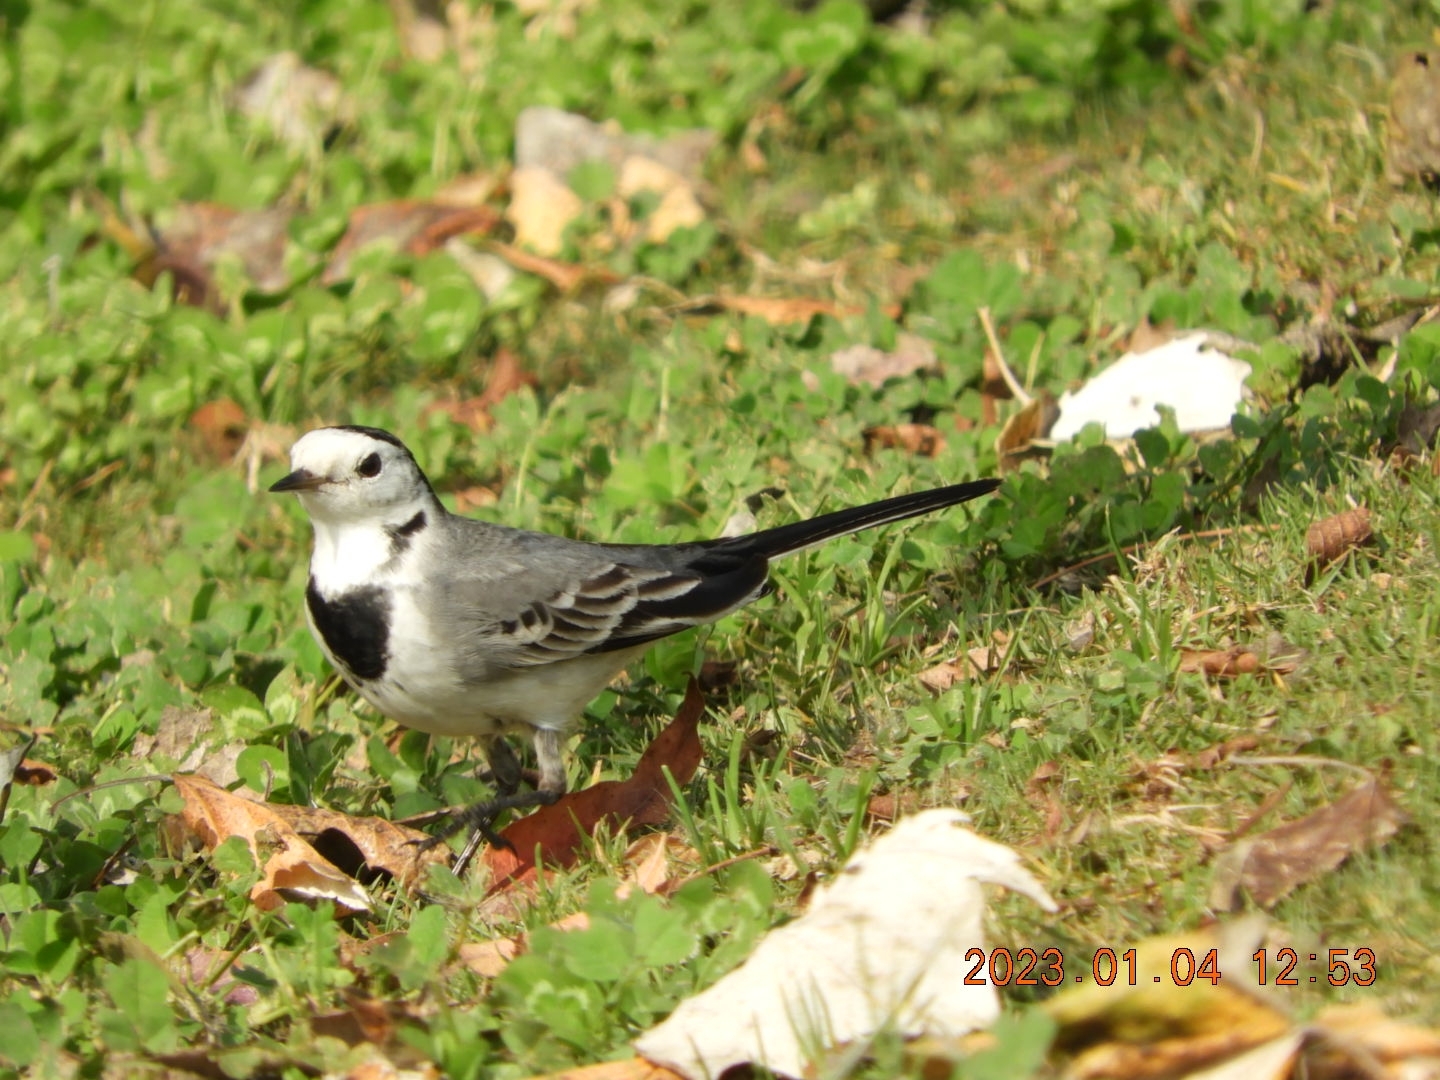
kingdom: Animalia
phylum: Chordata
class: Aves
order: Passeriformes
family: Motacillidae
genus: Motacilla
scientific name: Motacilla alba
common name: White wagtail
